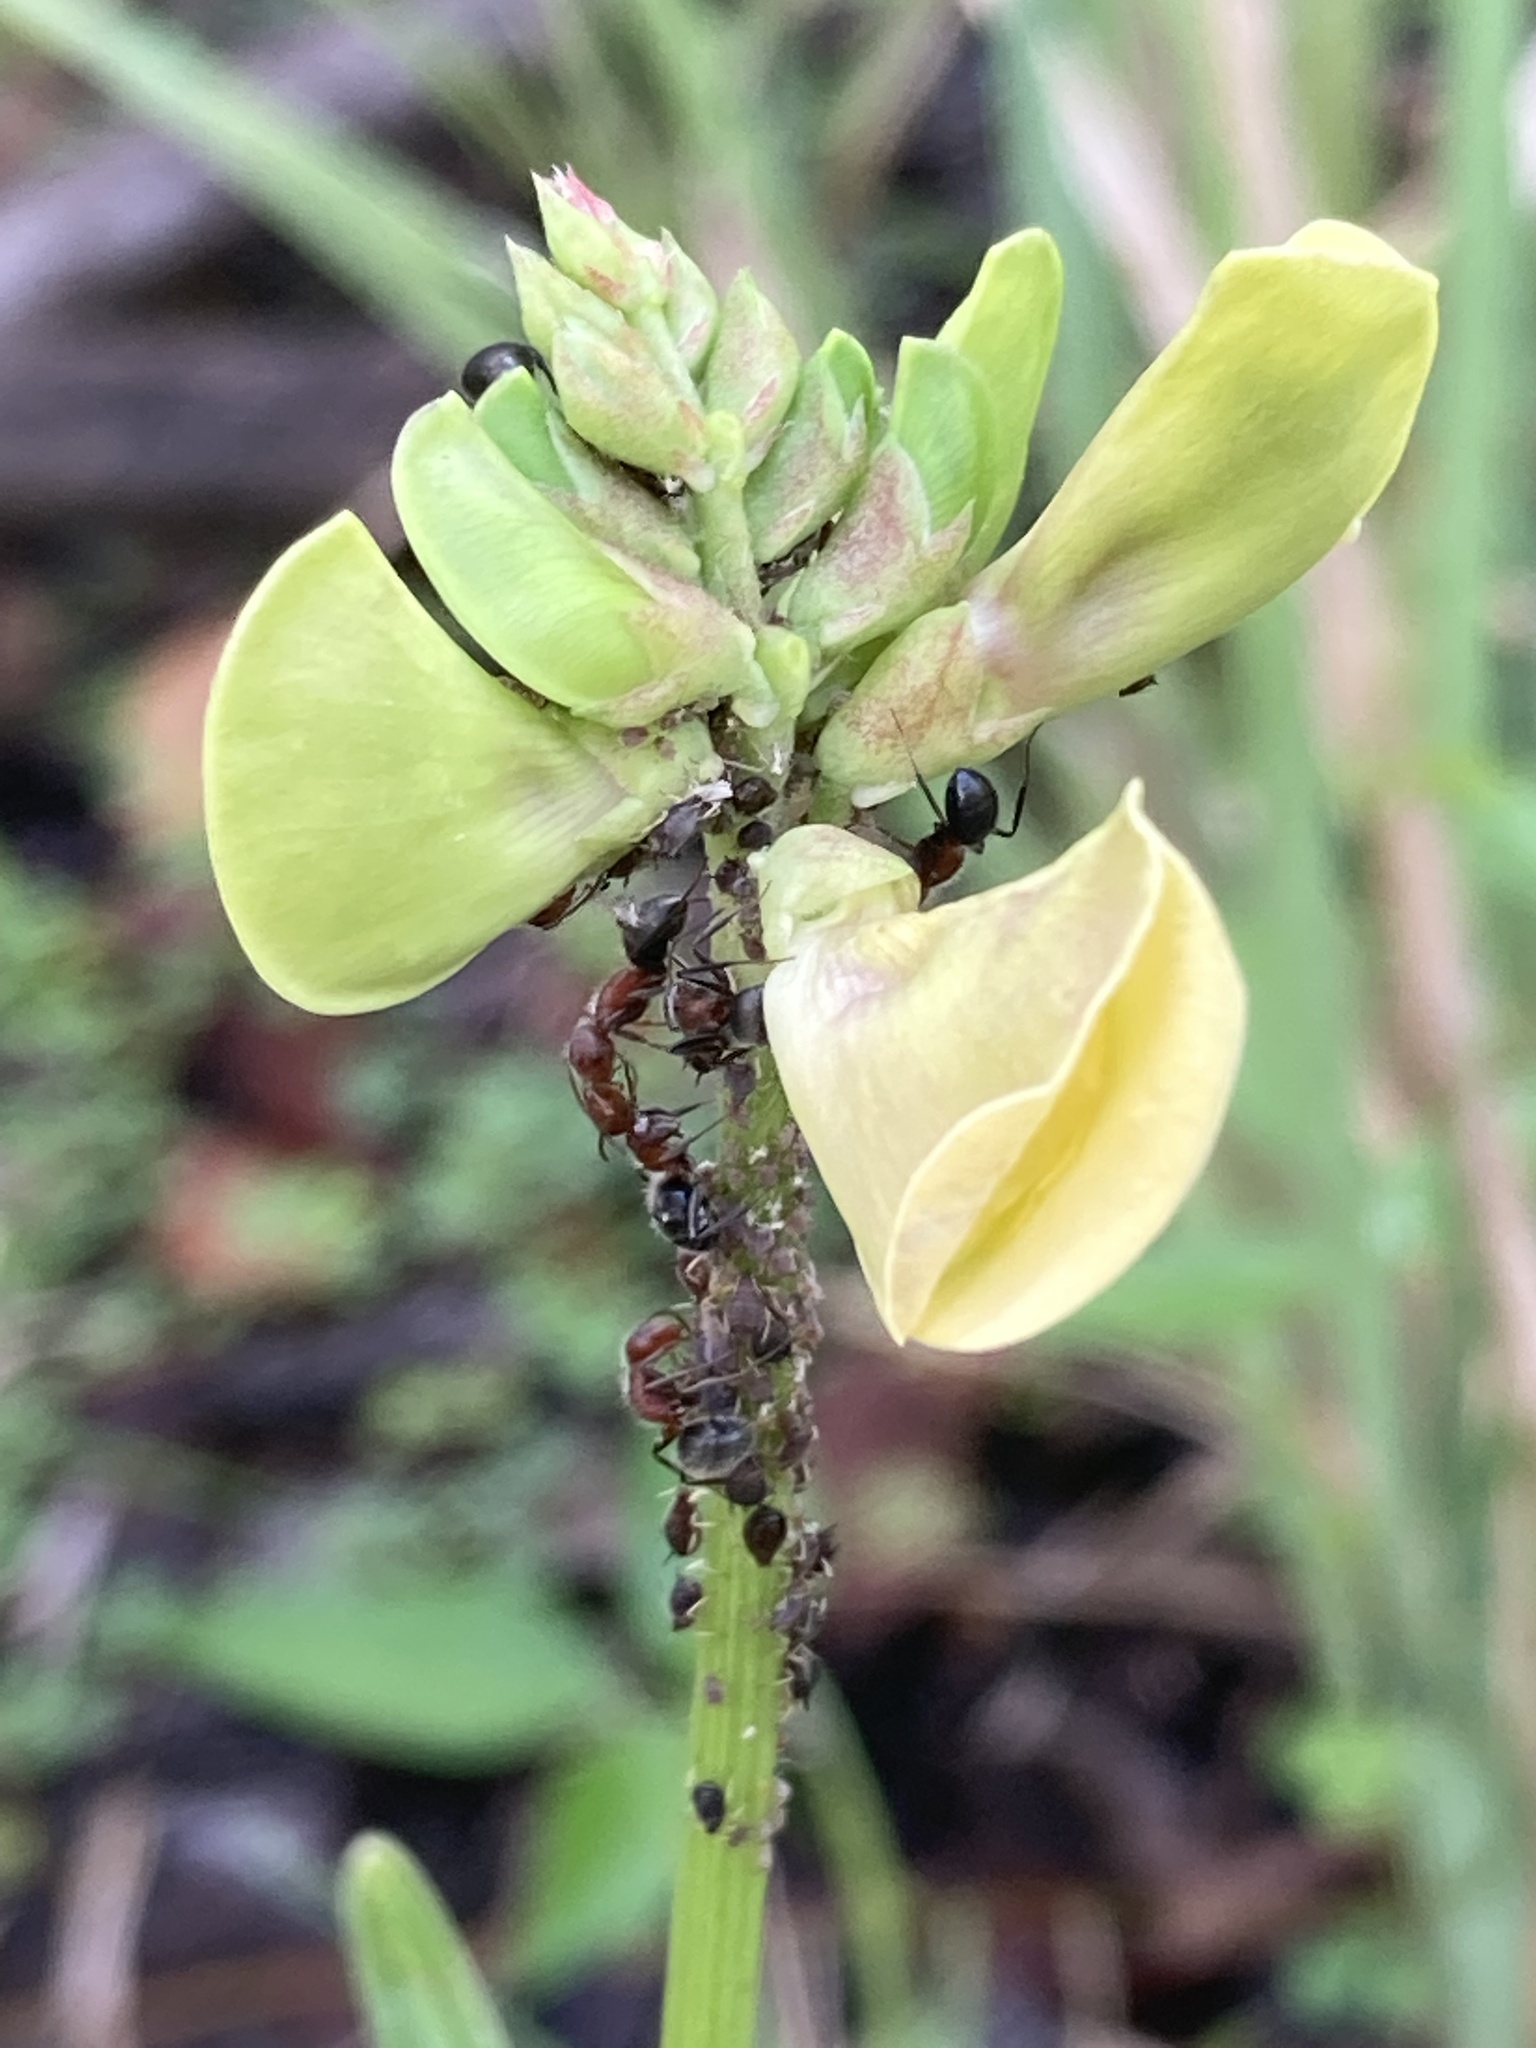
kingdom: Animalia
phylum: Arthropoda
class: Insecta
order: Hymenoptera
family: Formicidae
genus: Camponotus
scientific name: Camponotus planatus
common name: Compact carpenter ant
